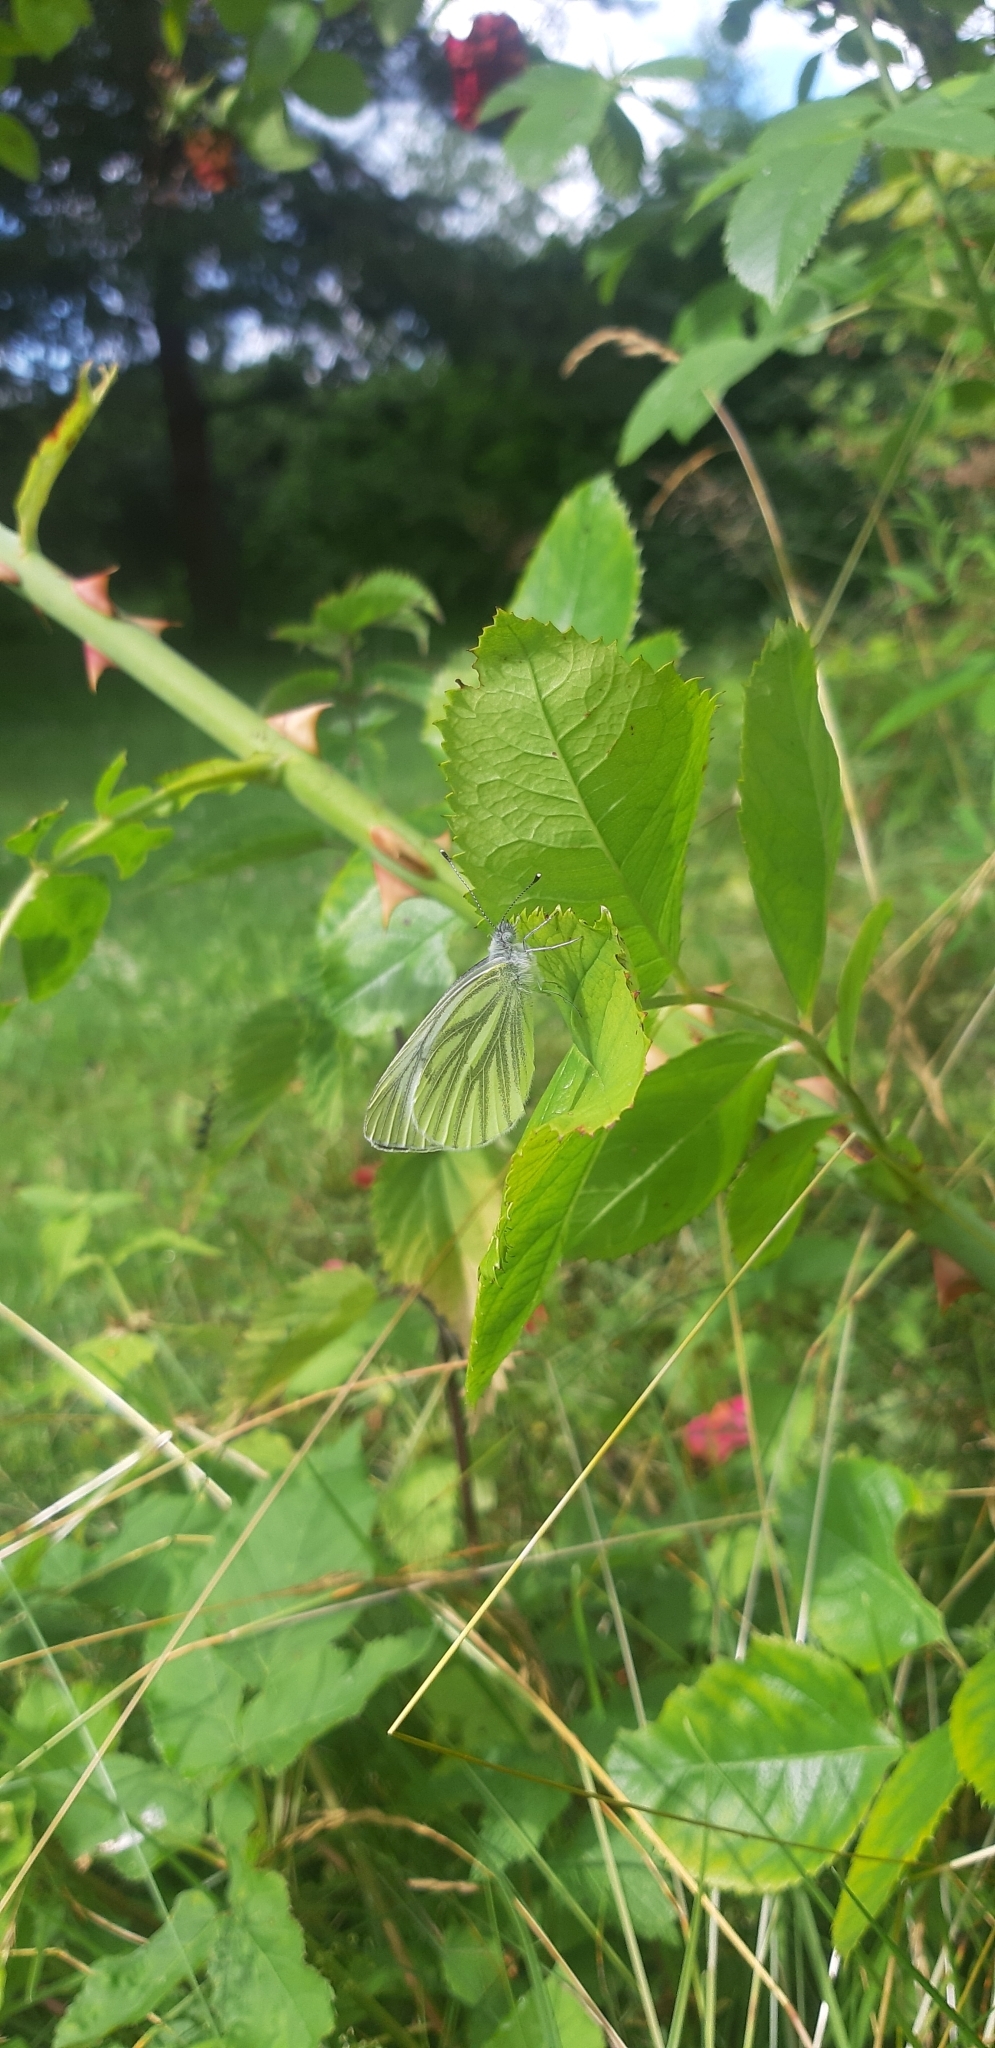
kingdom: Animalia
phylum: Arthropoda
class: Insecta
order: Lepidoptera
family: Pieridae
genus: Pieris
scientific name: Pieris napi
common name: Green-veined white
